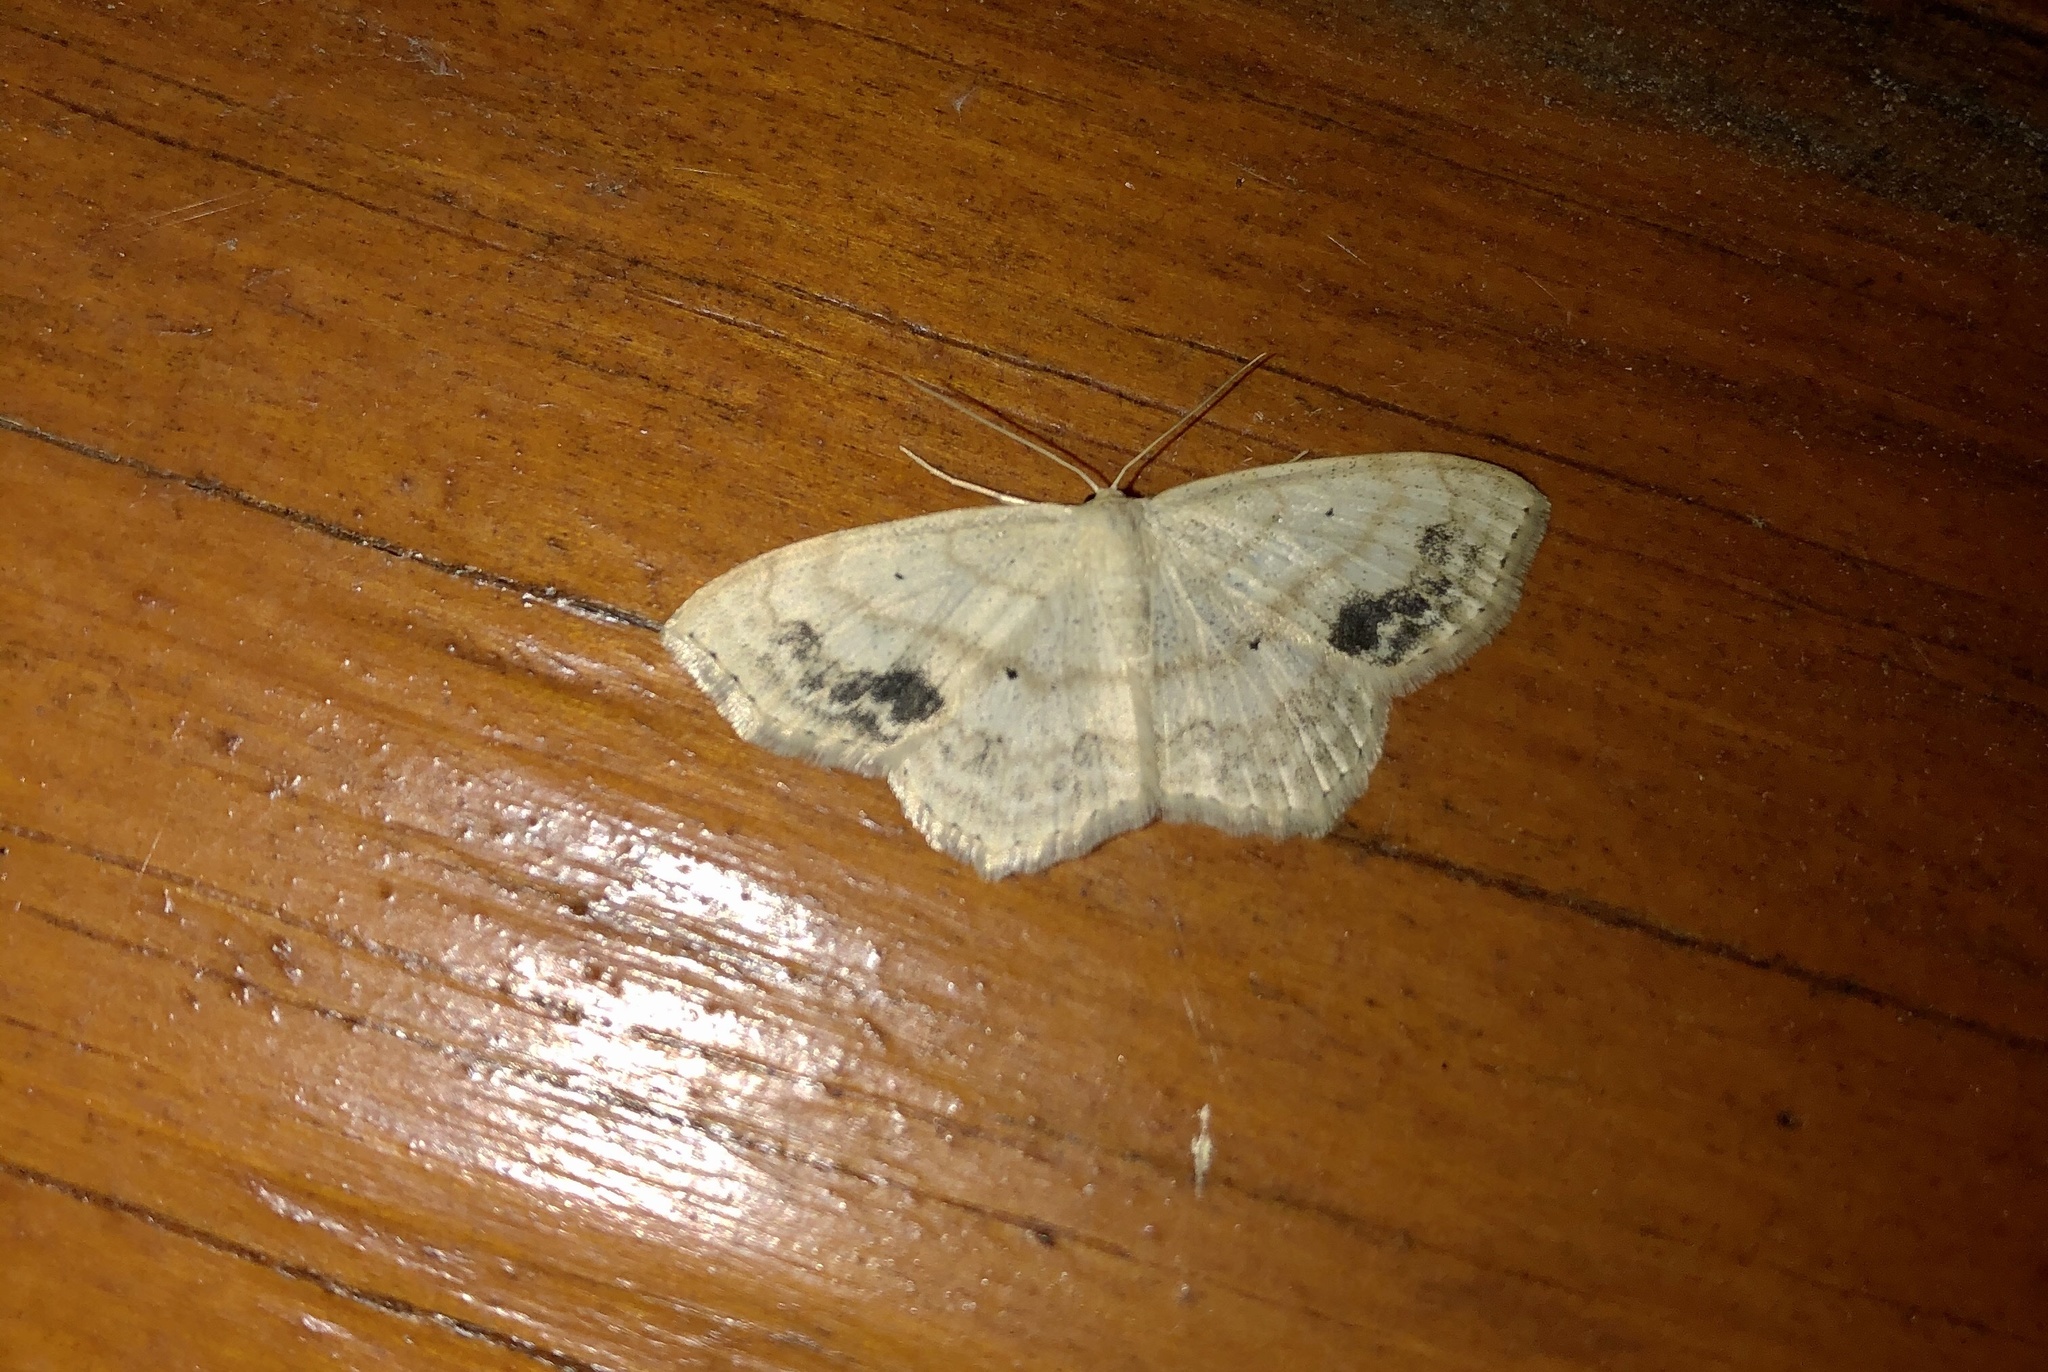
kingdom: Animalia
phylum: Arthropoda
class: Insecta
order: Lepidoptera
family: Geometridae
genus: Scopula
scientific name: Scopula limboundata
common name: Large lace border
